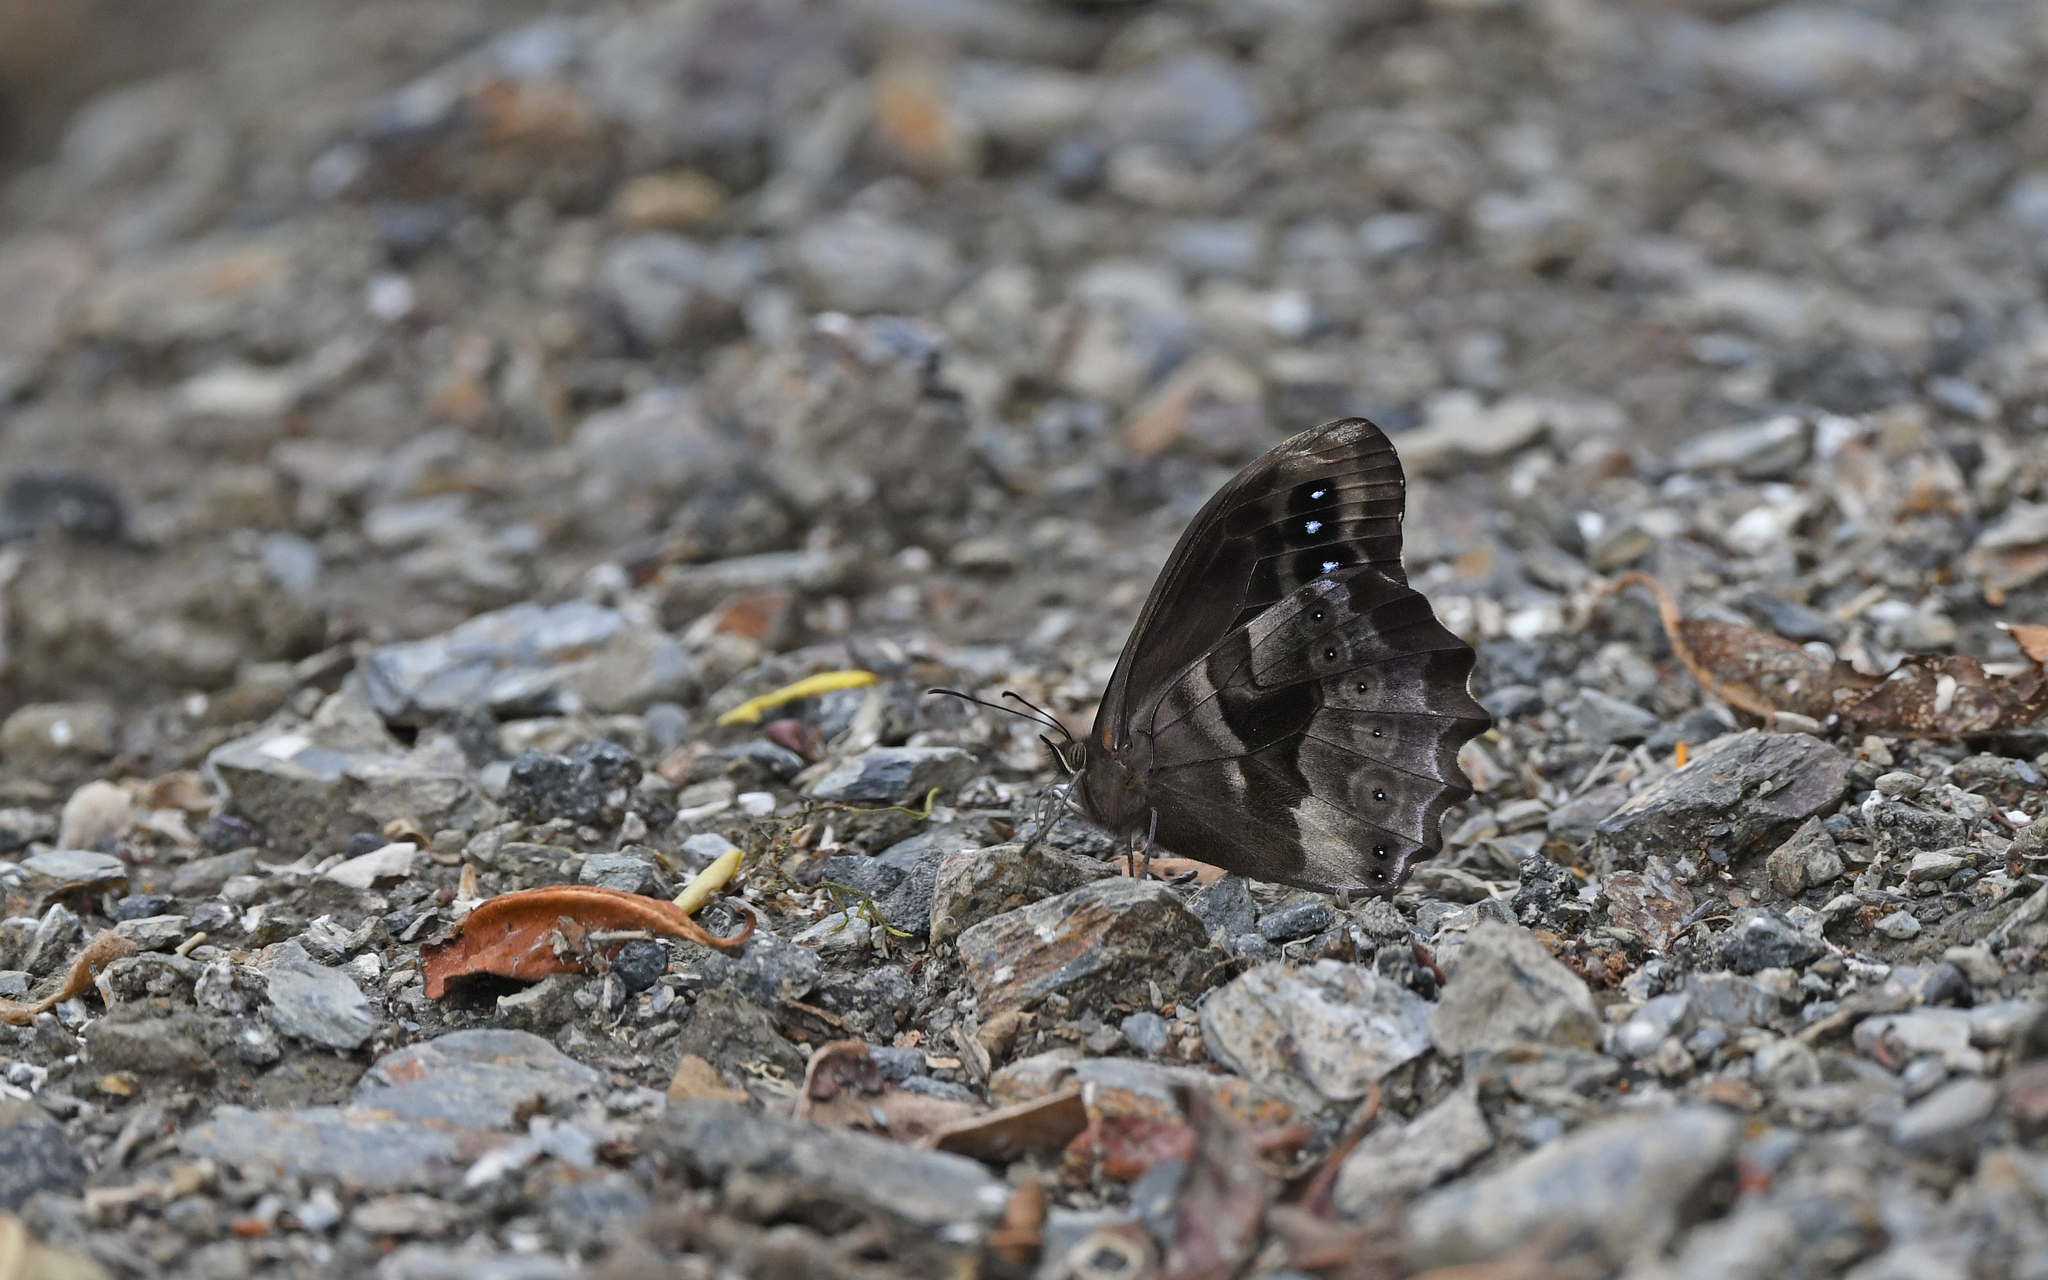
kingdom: Animalia
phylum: Arthropoda
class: Insecta
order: Lepidoptera
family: Nymphalidae
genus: Pronophila
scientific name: Pronophila cordillera
